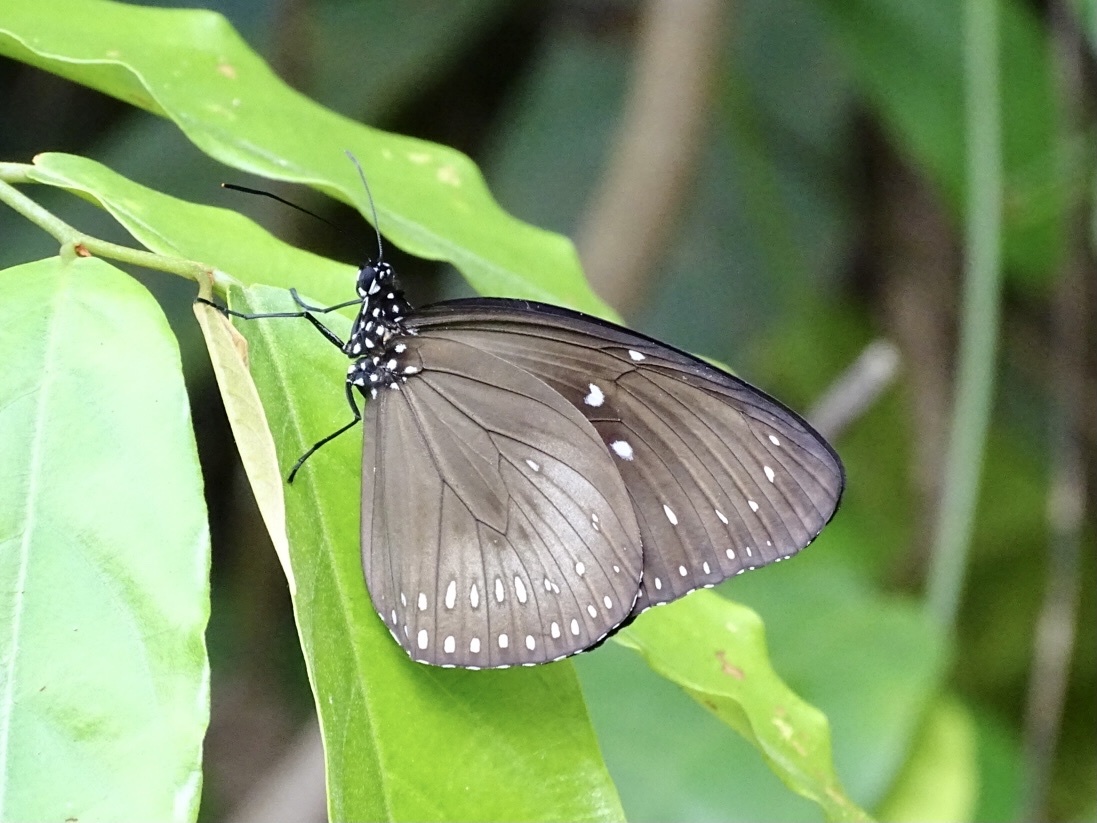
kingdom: Animalia
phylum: Arthropoda
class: Insecta
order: Lepidoptera
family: Nymphalidae
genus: Euploea
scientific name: Euploea midamus
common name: Blue-spotted crow butterfly
